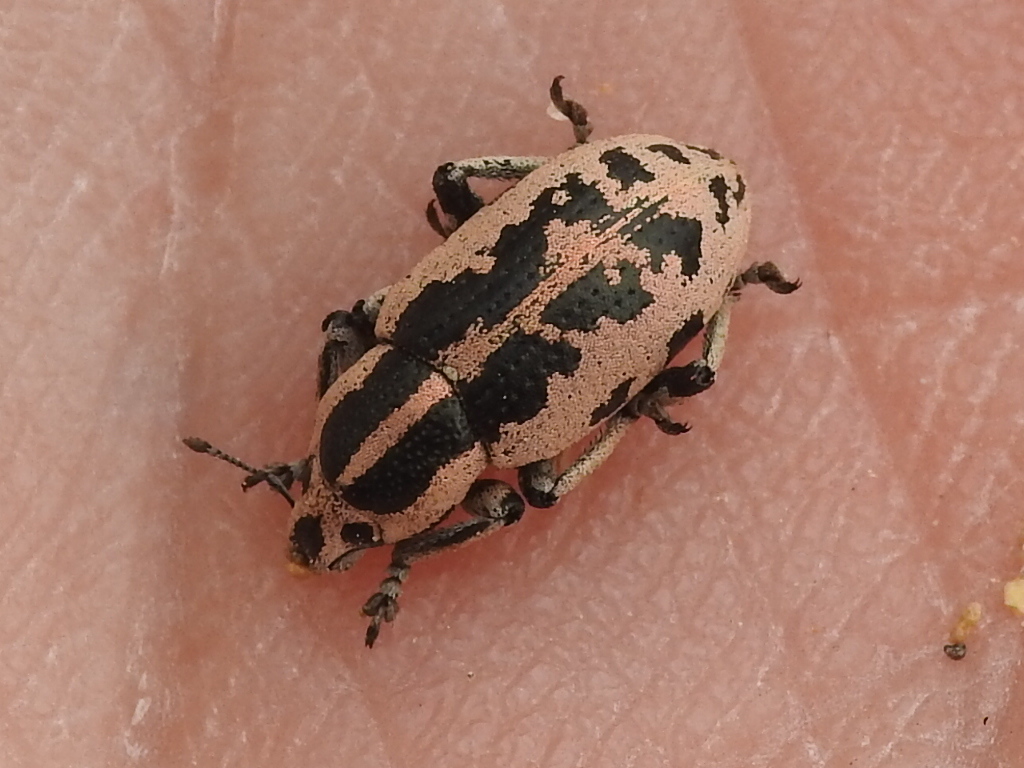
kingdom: Animalia
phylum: Arthropoda
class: Insecta
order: Coleoptera
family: Curculionidae
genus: Eudiagogus
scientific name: Eudiagogus rosenschoeldi
